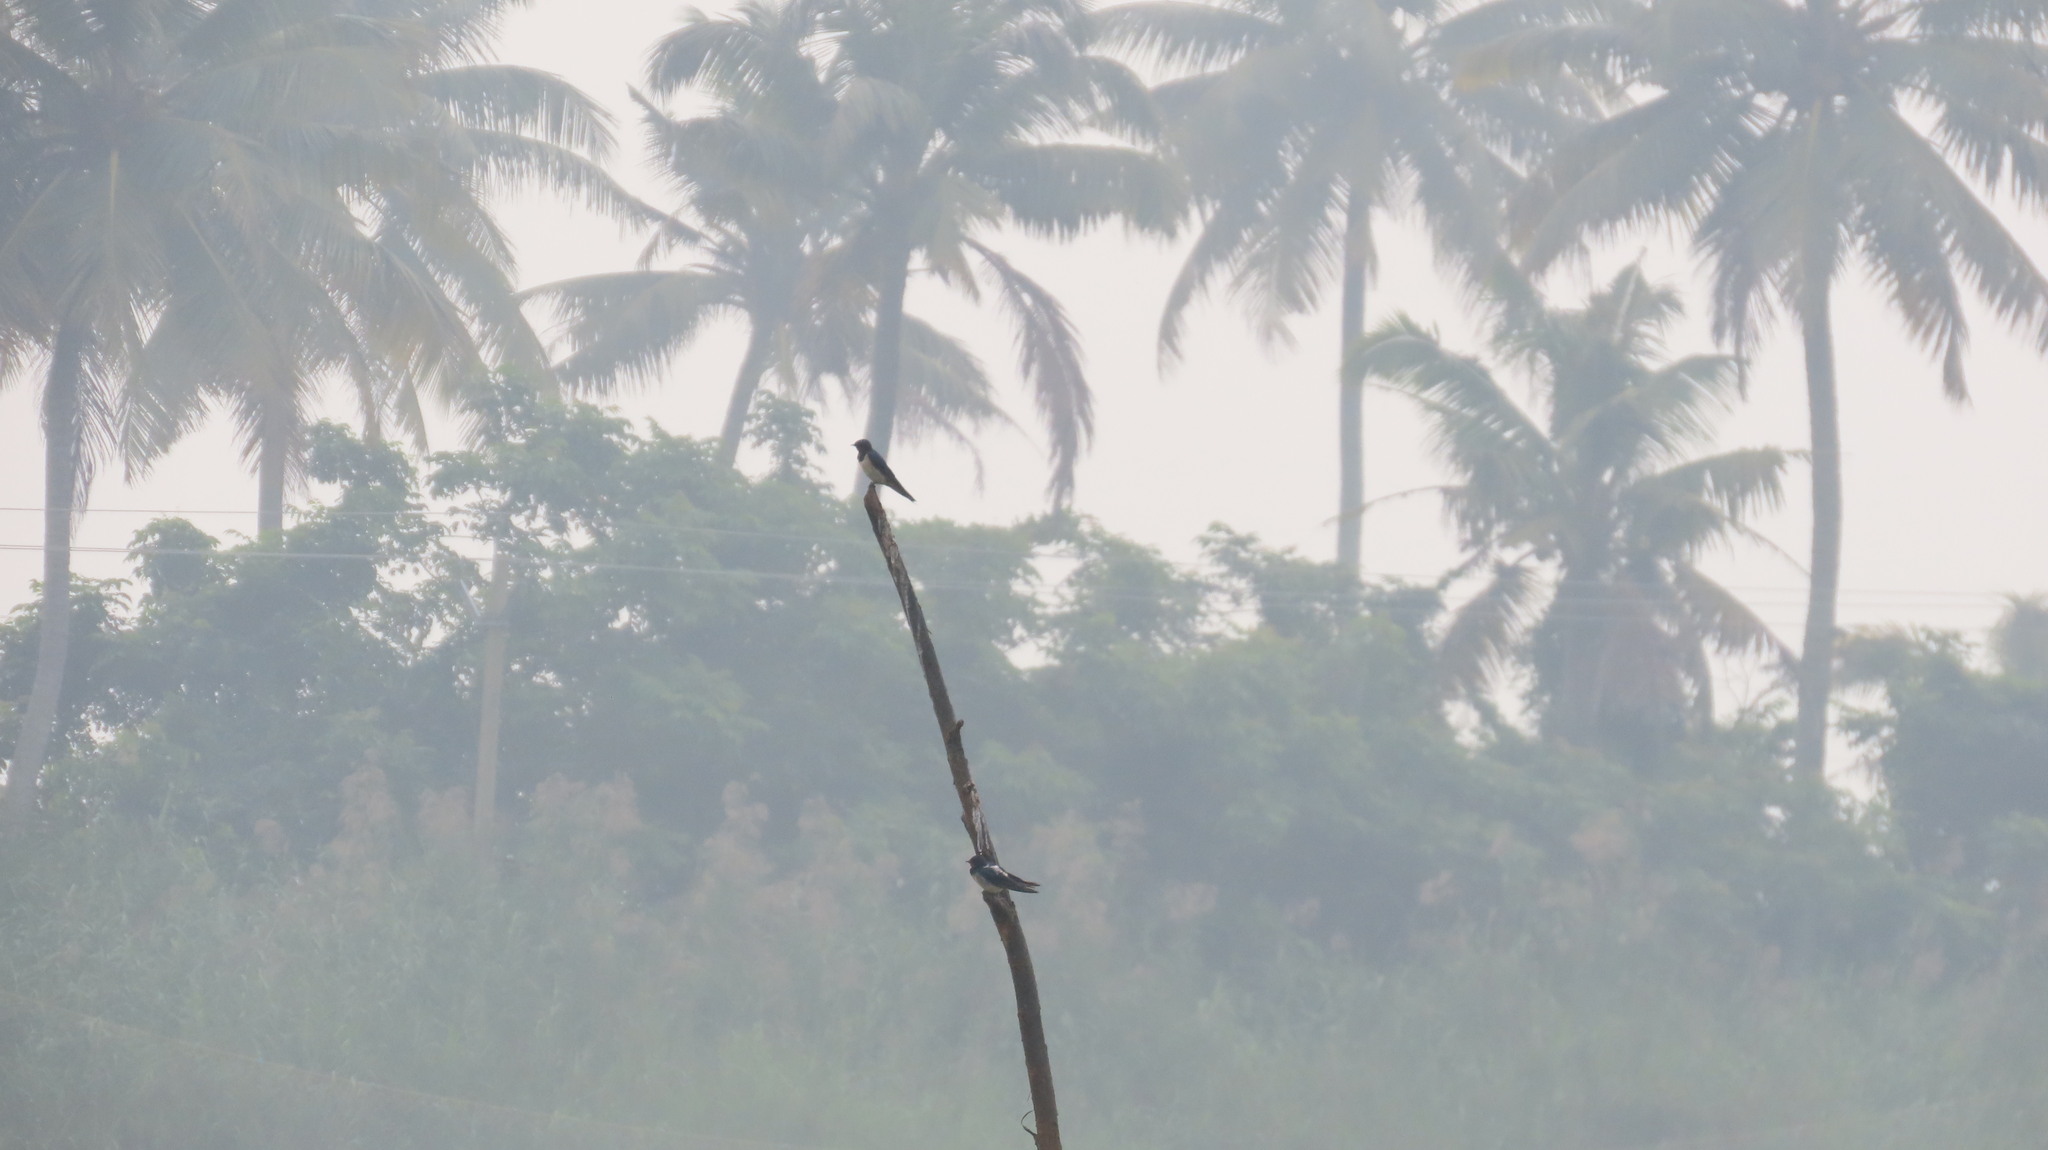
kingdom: Animalia
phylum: Chordata
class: Aves
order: Passeriformes
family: Hirundinidae
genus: Hirundo
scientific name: Hirundo rustica
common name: Barn swallow
